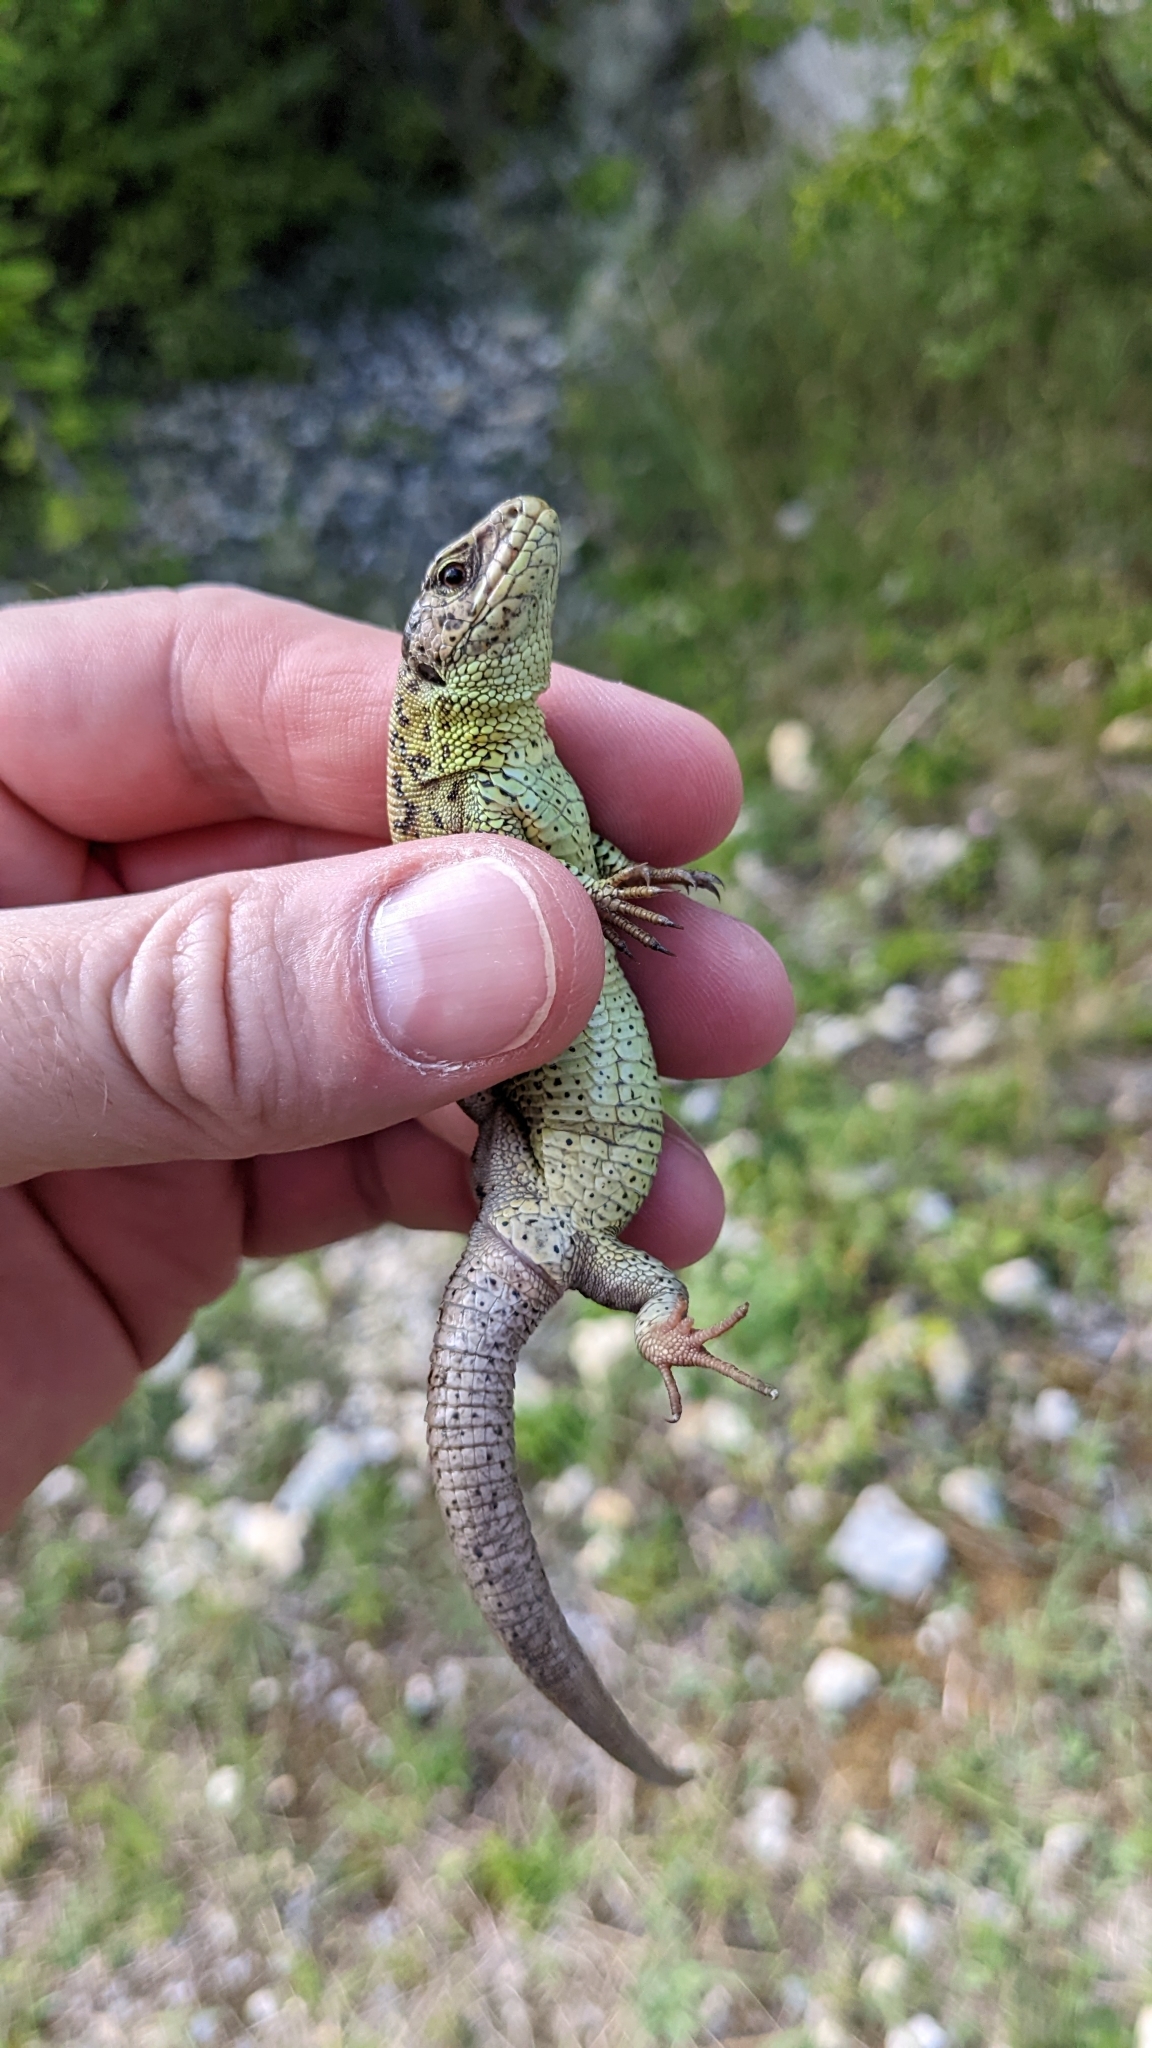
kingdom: Animalia
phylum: Chordata
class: Squamata
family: Lacertidae
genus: Lacerta
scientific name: Lacerta agilis
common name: Sand lizard
